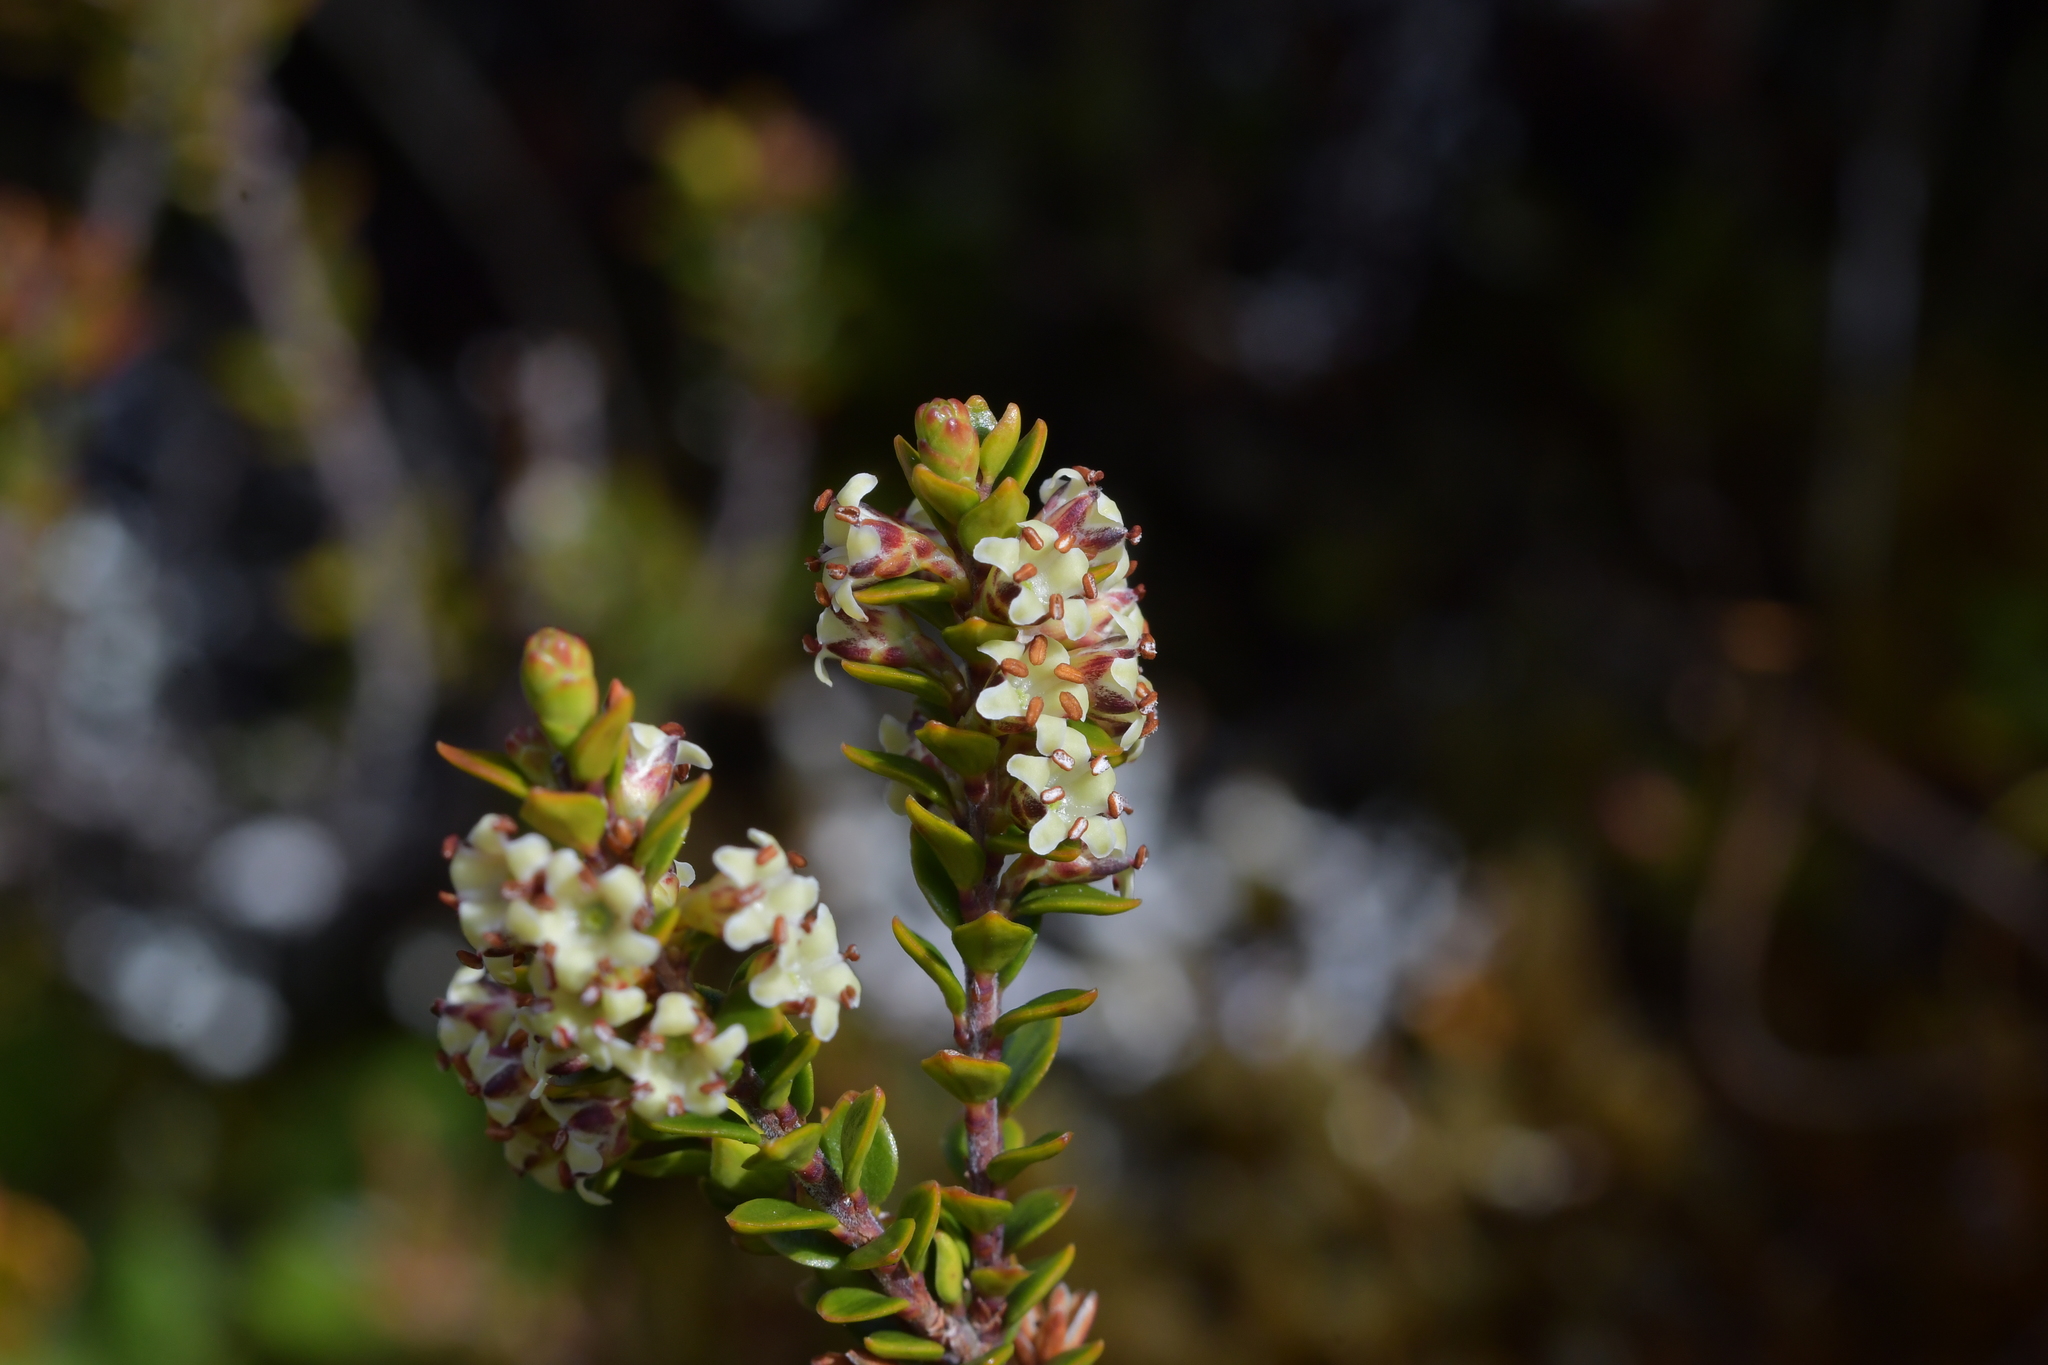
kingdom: Plantae
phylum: Tracheophyta
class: Magnoliopsida
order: Ericales
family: Ericaceae
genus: Epacris
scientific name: Epacris alpina
